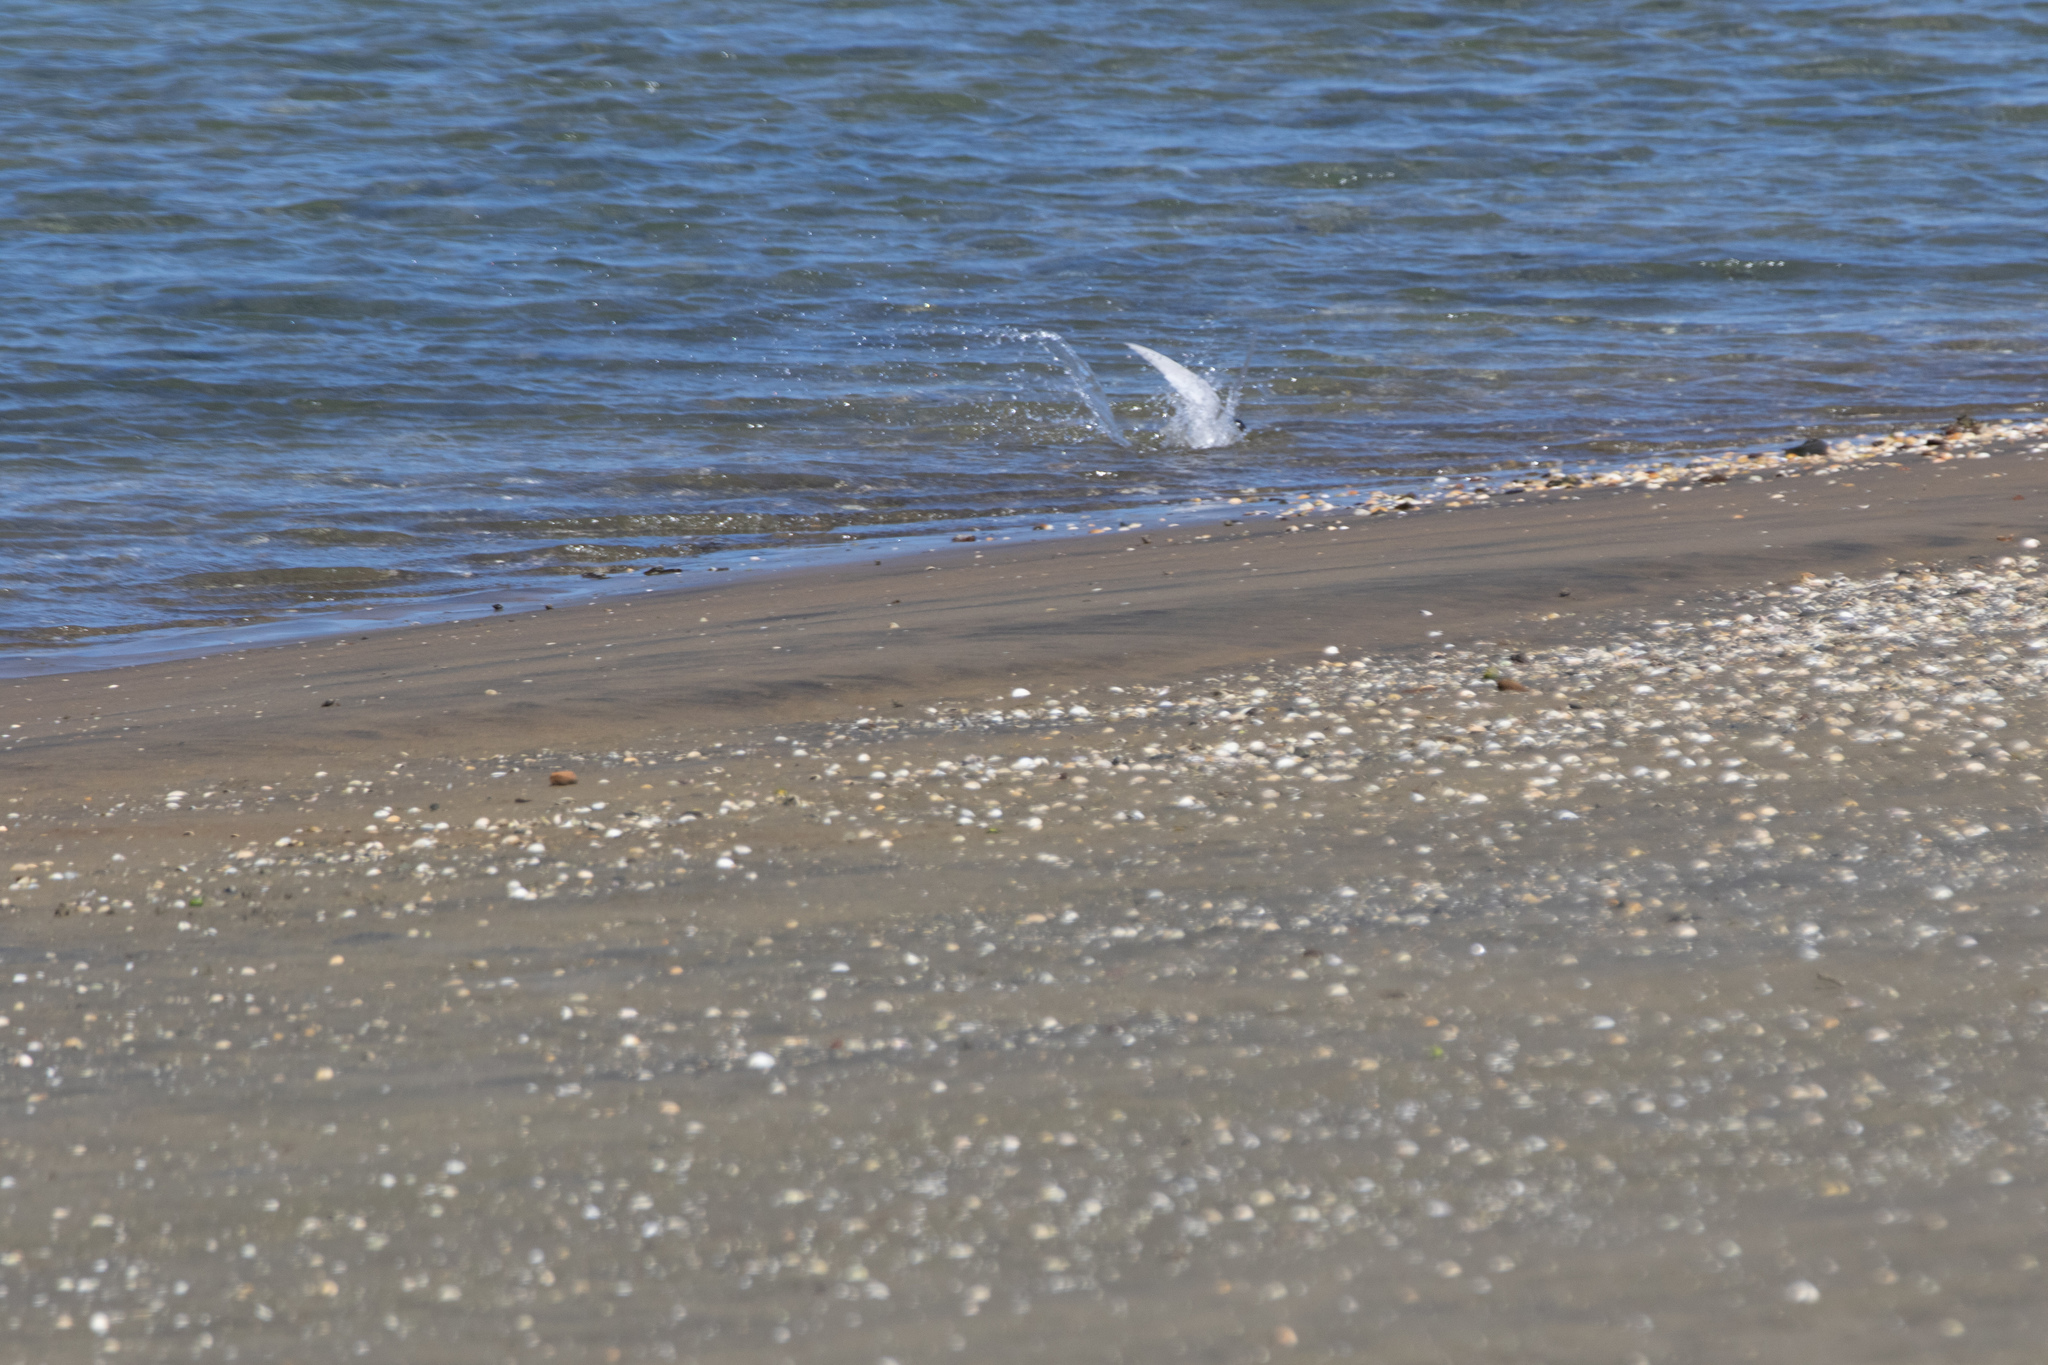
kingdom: Animalia
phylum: Chordata
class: Aves
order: Charadriiformes
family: Laridae
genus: Sternula
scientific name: Sternula nereis
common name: Fairy tern
